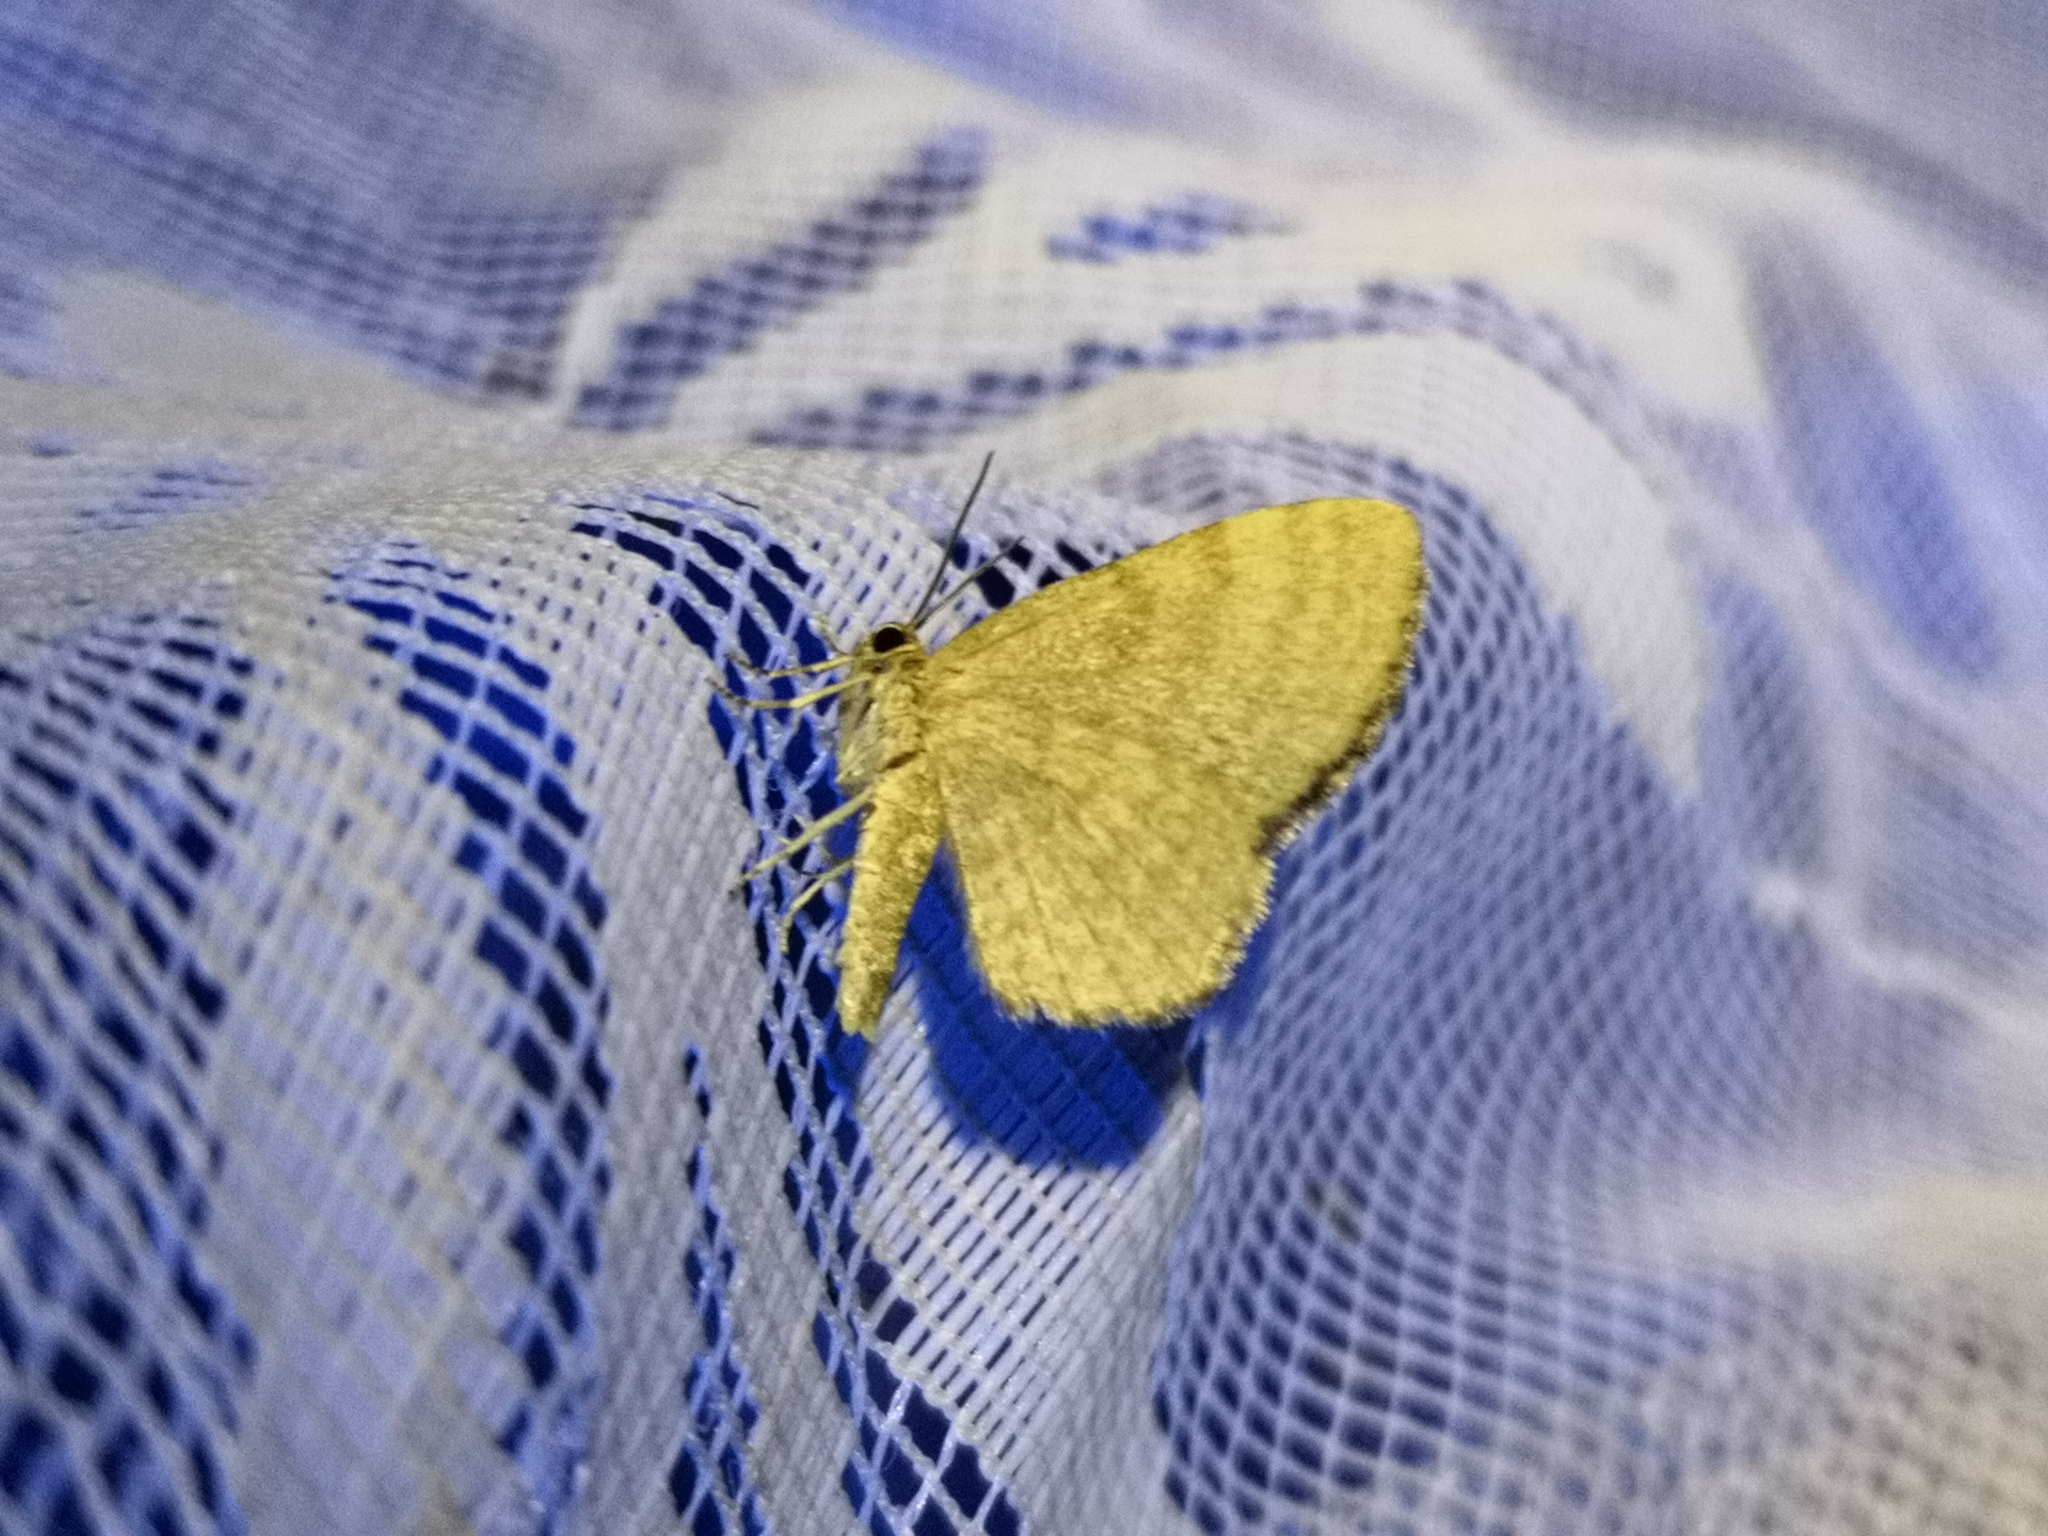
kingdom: Animalia
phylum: Arthropoda
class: Insecta
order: Lepidoptera
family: Geometridae
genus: Euchoeca
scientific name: Euchoeca nebulata
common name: Dingy shell
